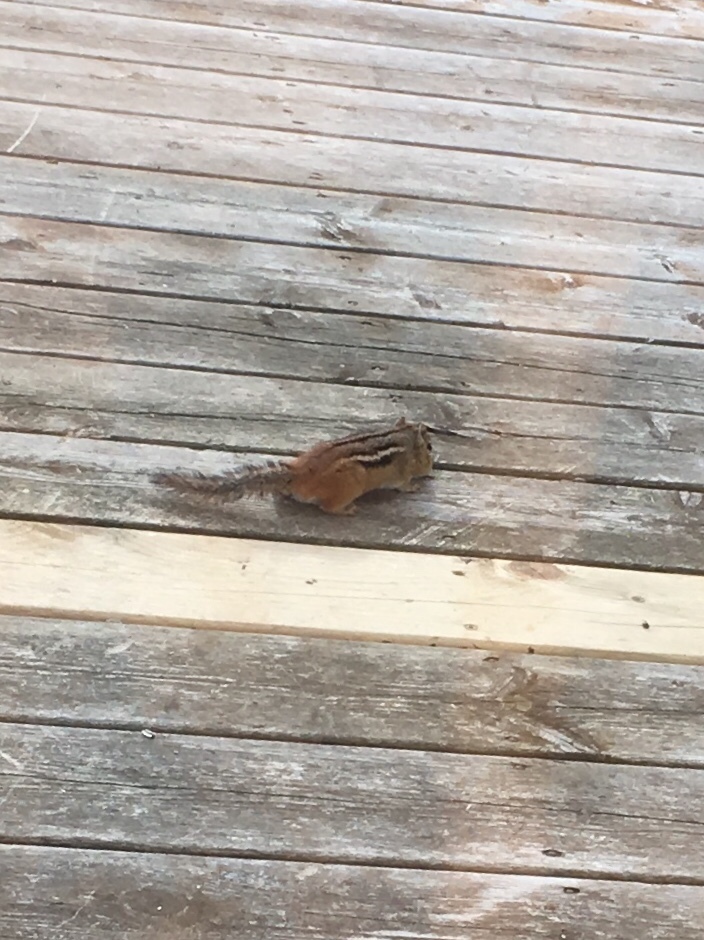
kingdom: Animalia
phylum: Chordata
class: Mammalia
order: Rodentia
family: Sciuridae
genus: Tamias
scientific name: Tamias striatus
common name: Eastern chipmunk
